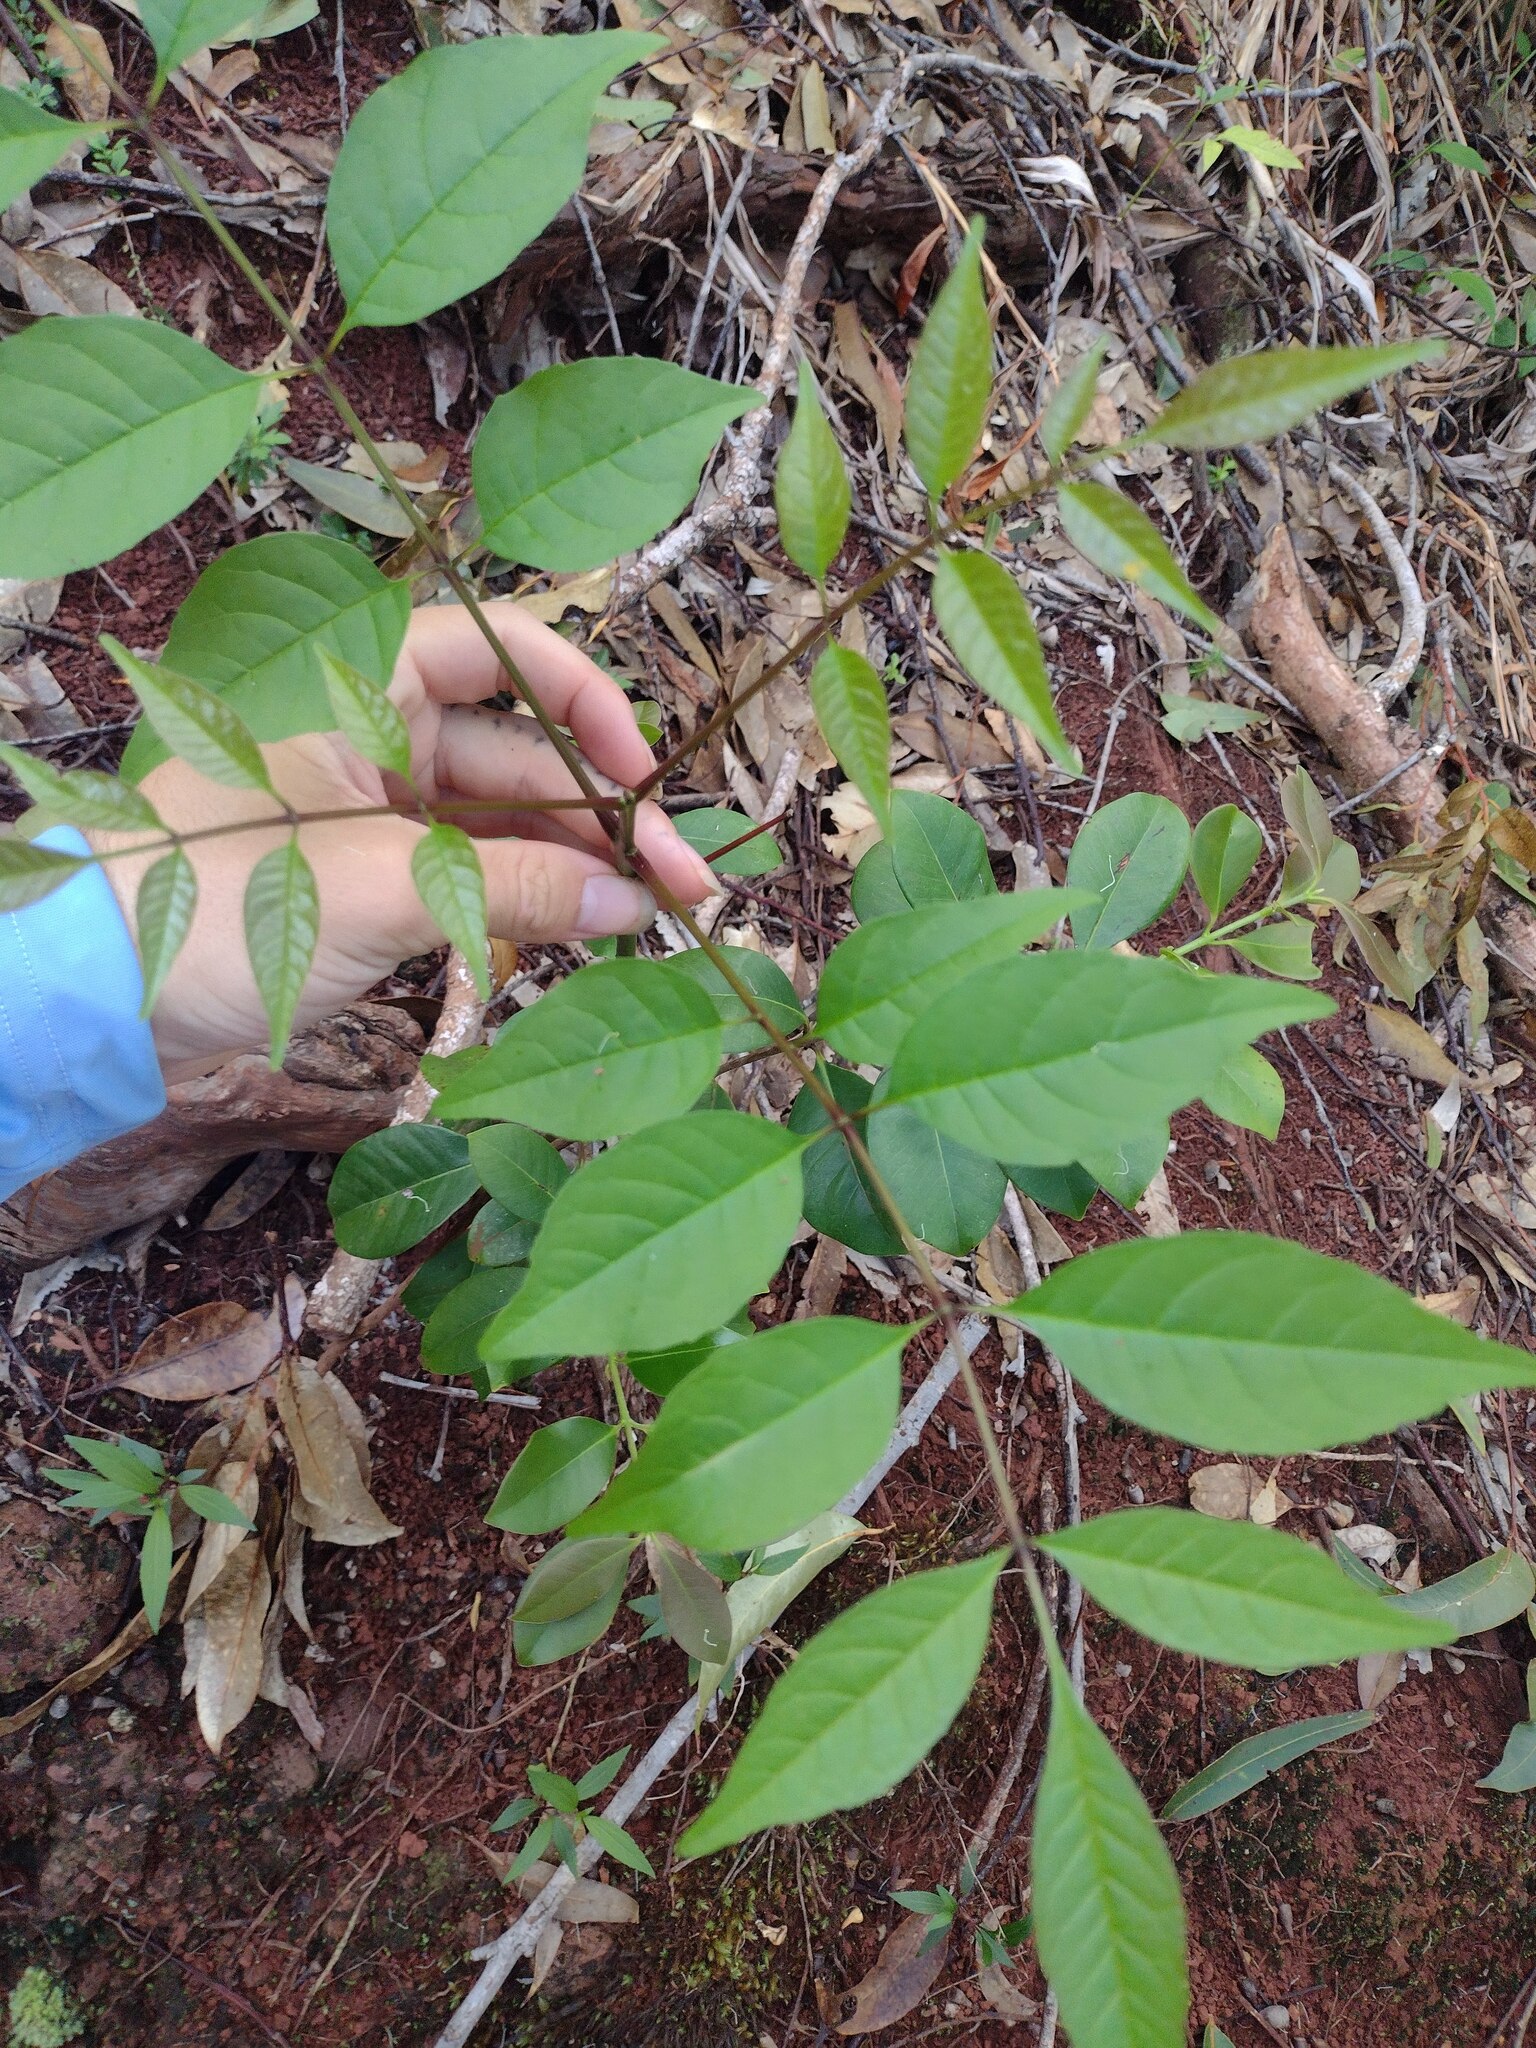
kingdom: Plantae
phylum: Tracheophyta
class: Magnoliopsida
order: Lamiales
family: Oleaceae
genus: Fraxinus
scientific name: Fraxinus uhdei
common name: Shamel ash
